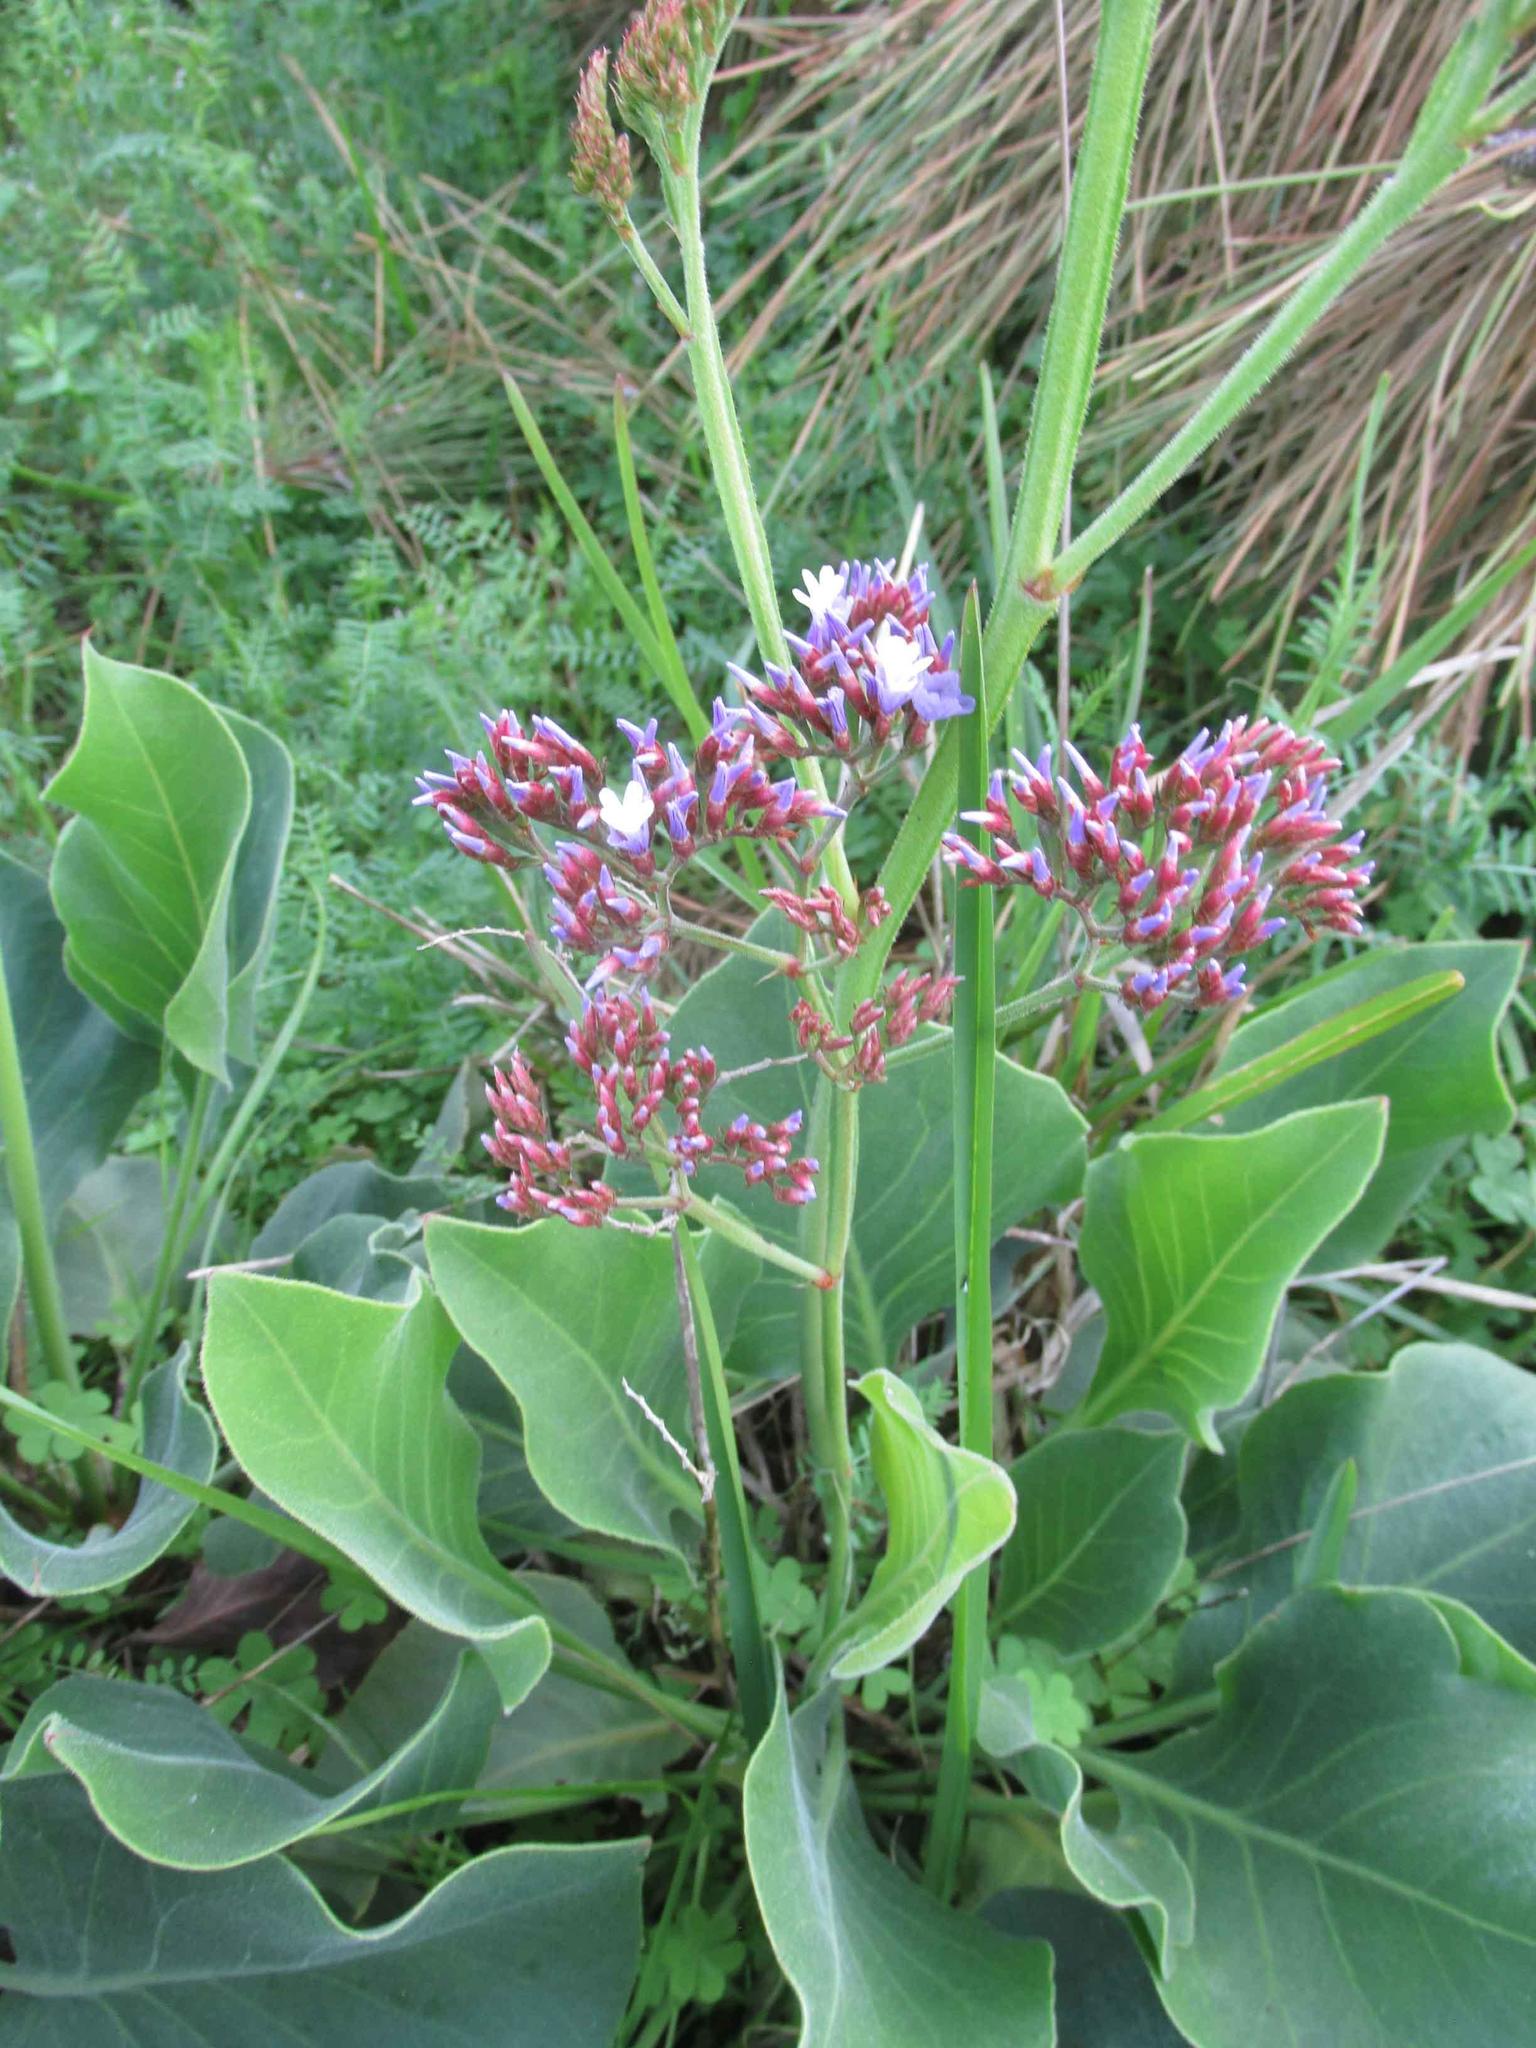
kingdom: Plantae
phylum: Tracheophyta
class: Magnoliopsida
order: Caryophyllales
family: Plumbaginaceae
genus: Limonium
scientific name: Limonium perezii
